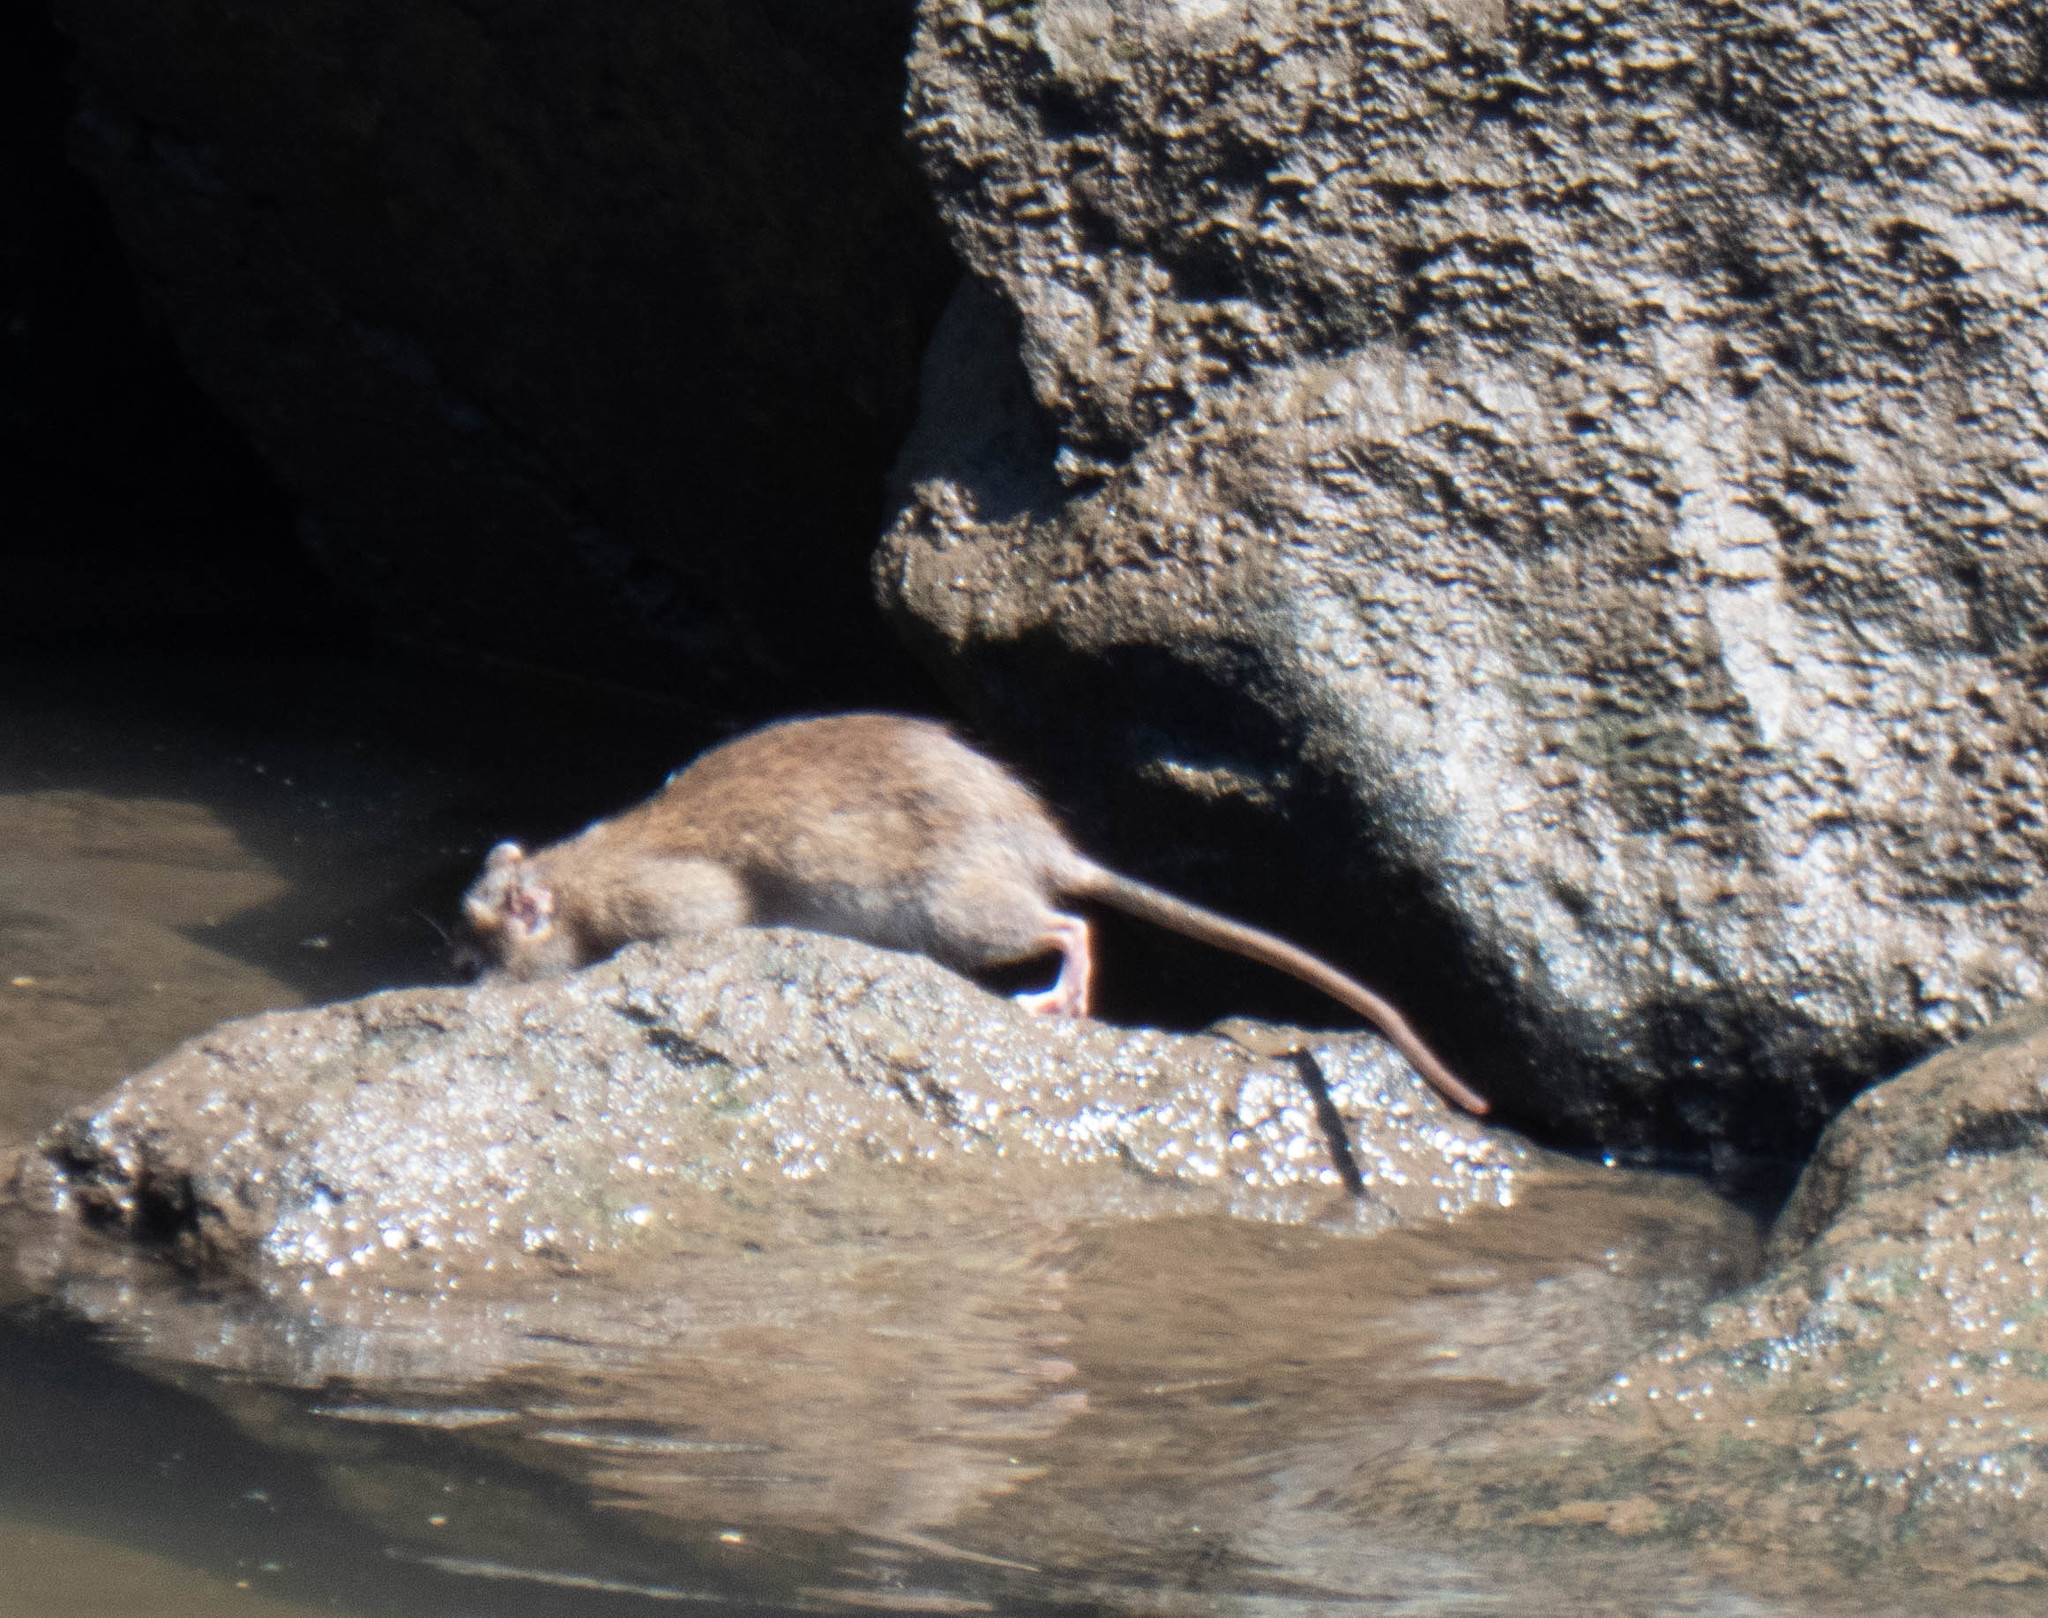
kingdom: Animalia
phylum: Chordata
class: Mammalia
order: Rodentia
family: Muridae
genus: Rattus
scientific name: Rattus norvegicus
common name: Brown rat
